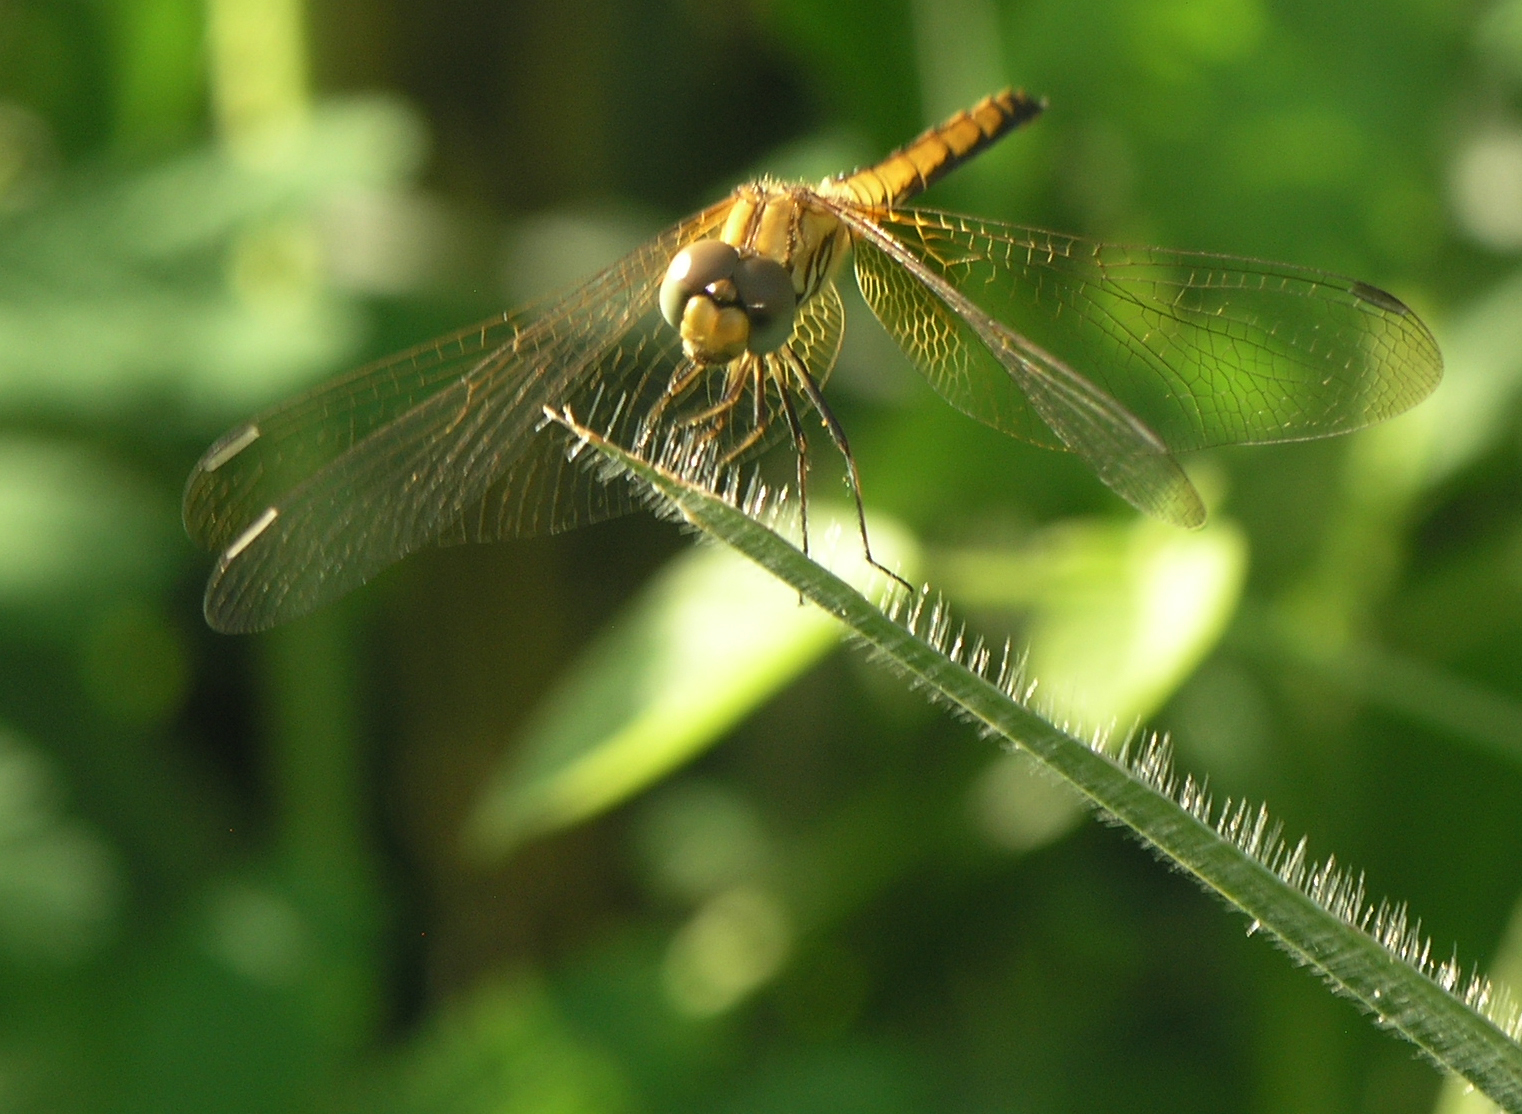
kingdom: Animalia
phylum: Arthropoda
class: Insecta
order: Odonata
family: Libellulidae
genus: Trithemis
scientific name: Trithemis aurora
